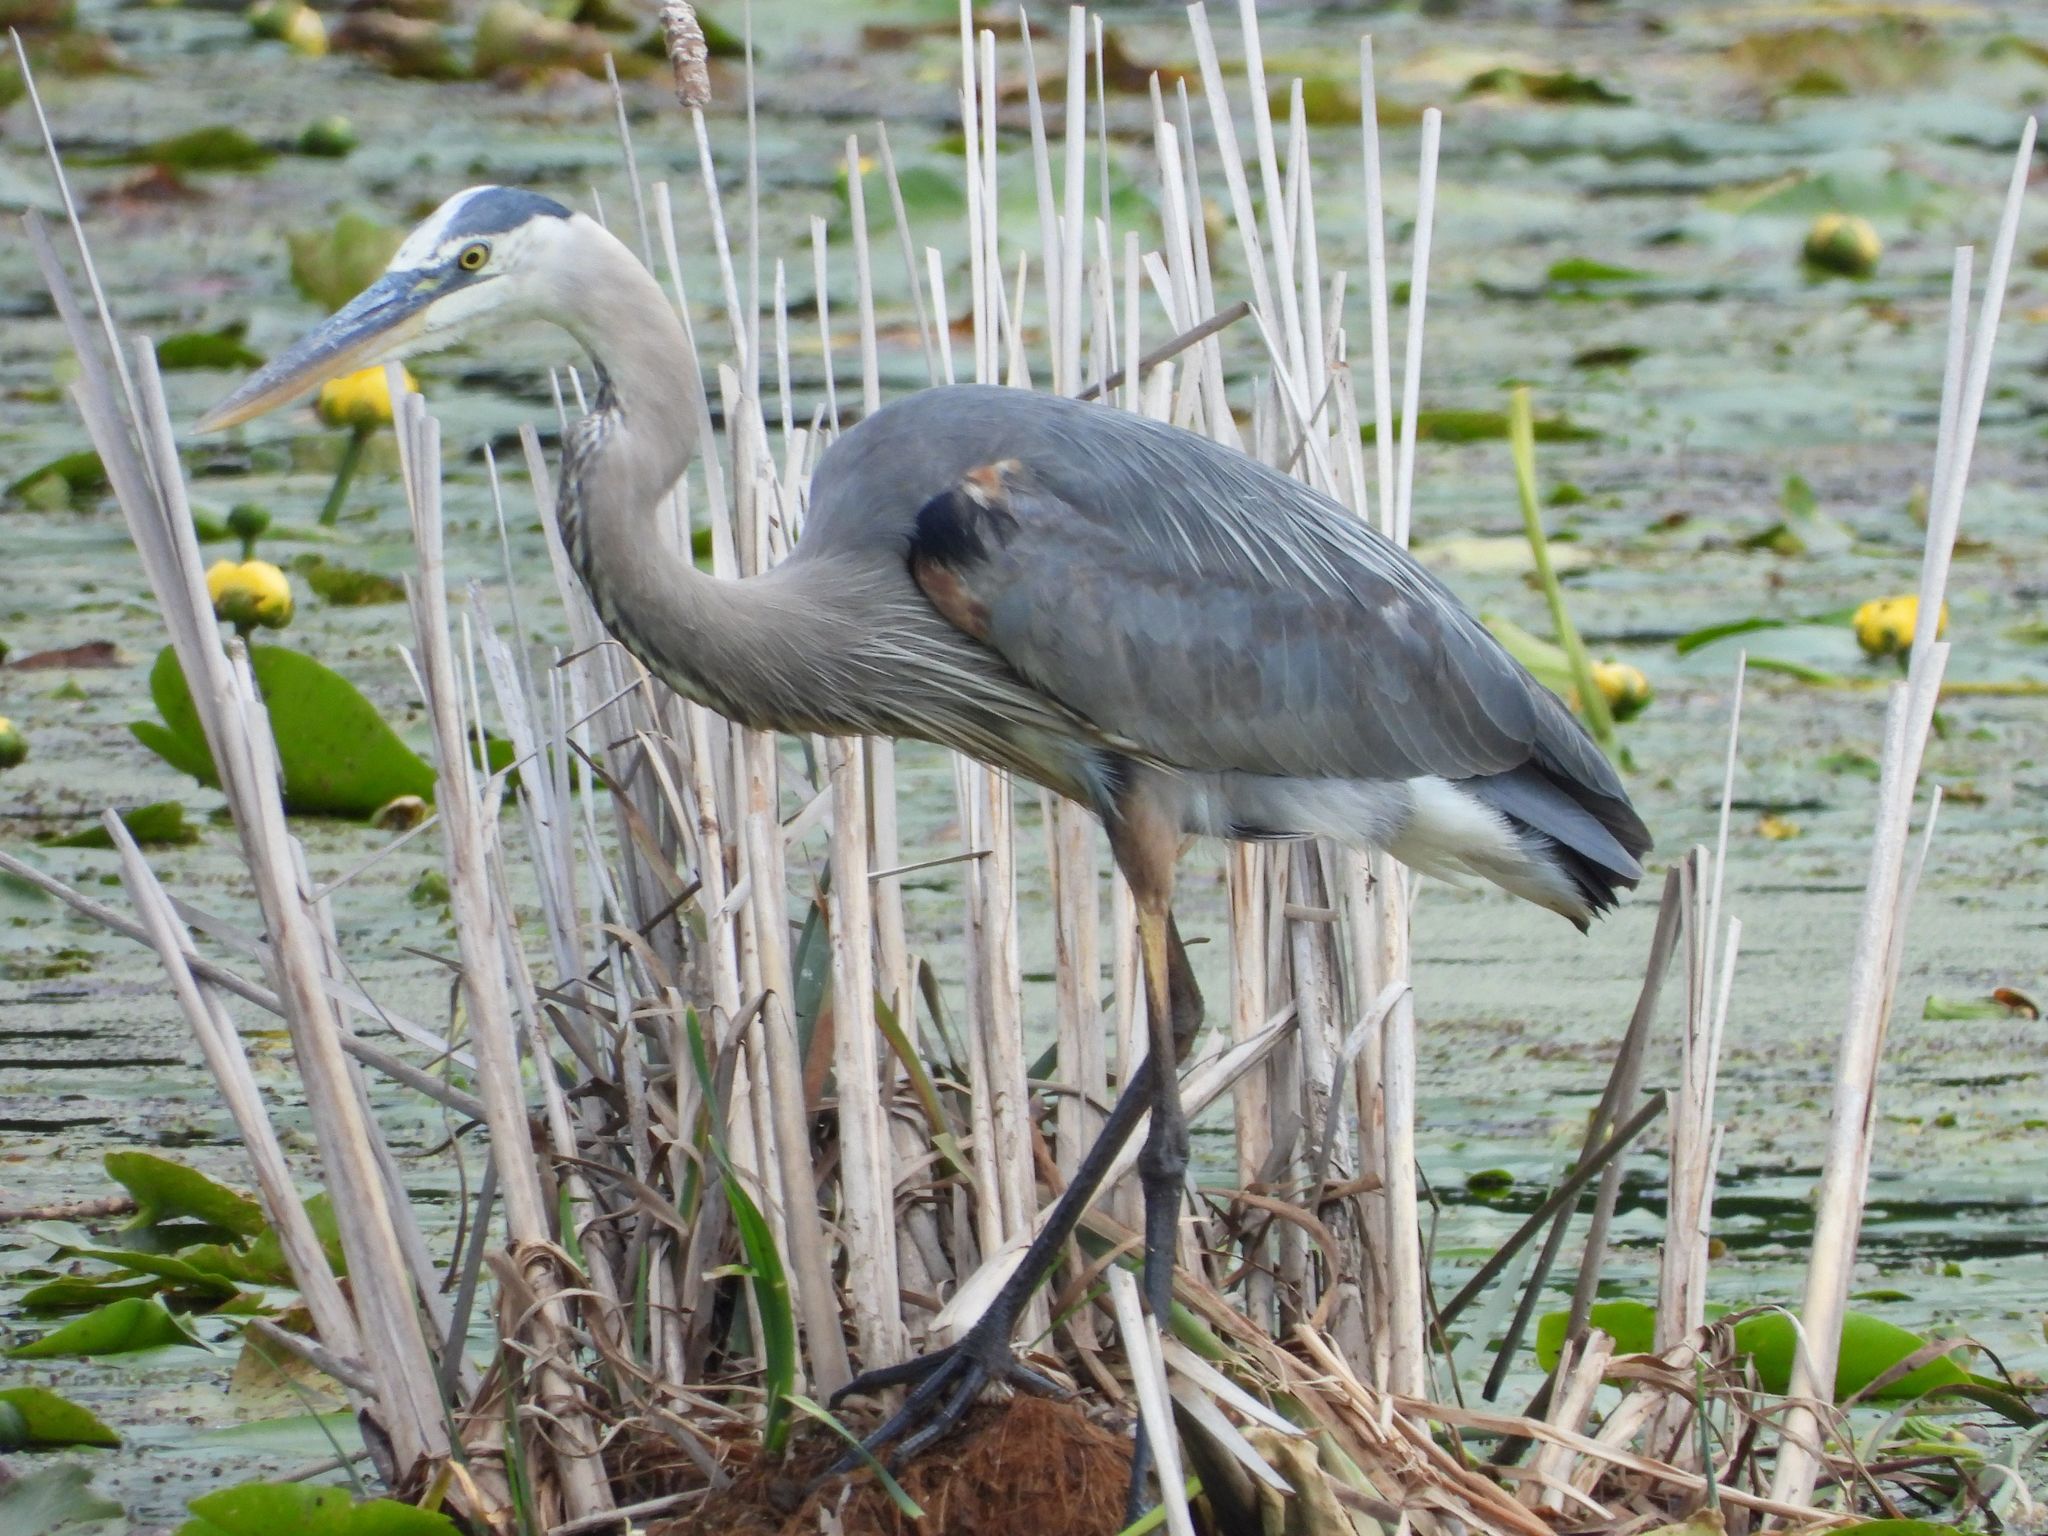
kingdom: Animalia
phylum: Chordata
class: Aves
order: Pelecaniformes
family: Ardeidae
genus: Ardea
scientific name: Ardea herodias
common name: Great blue heron
